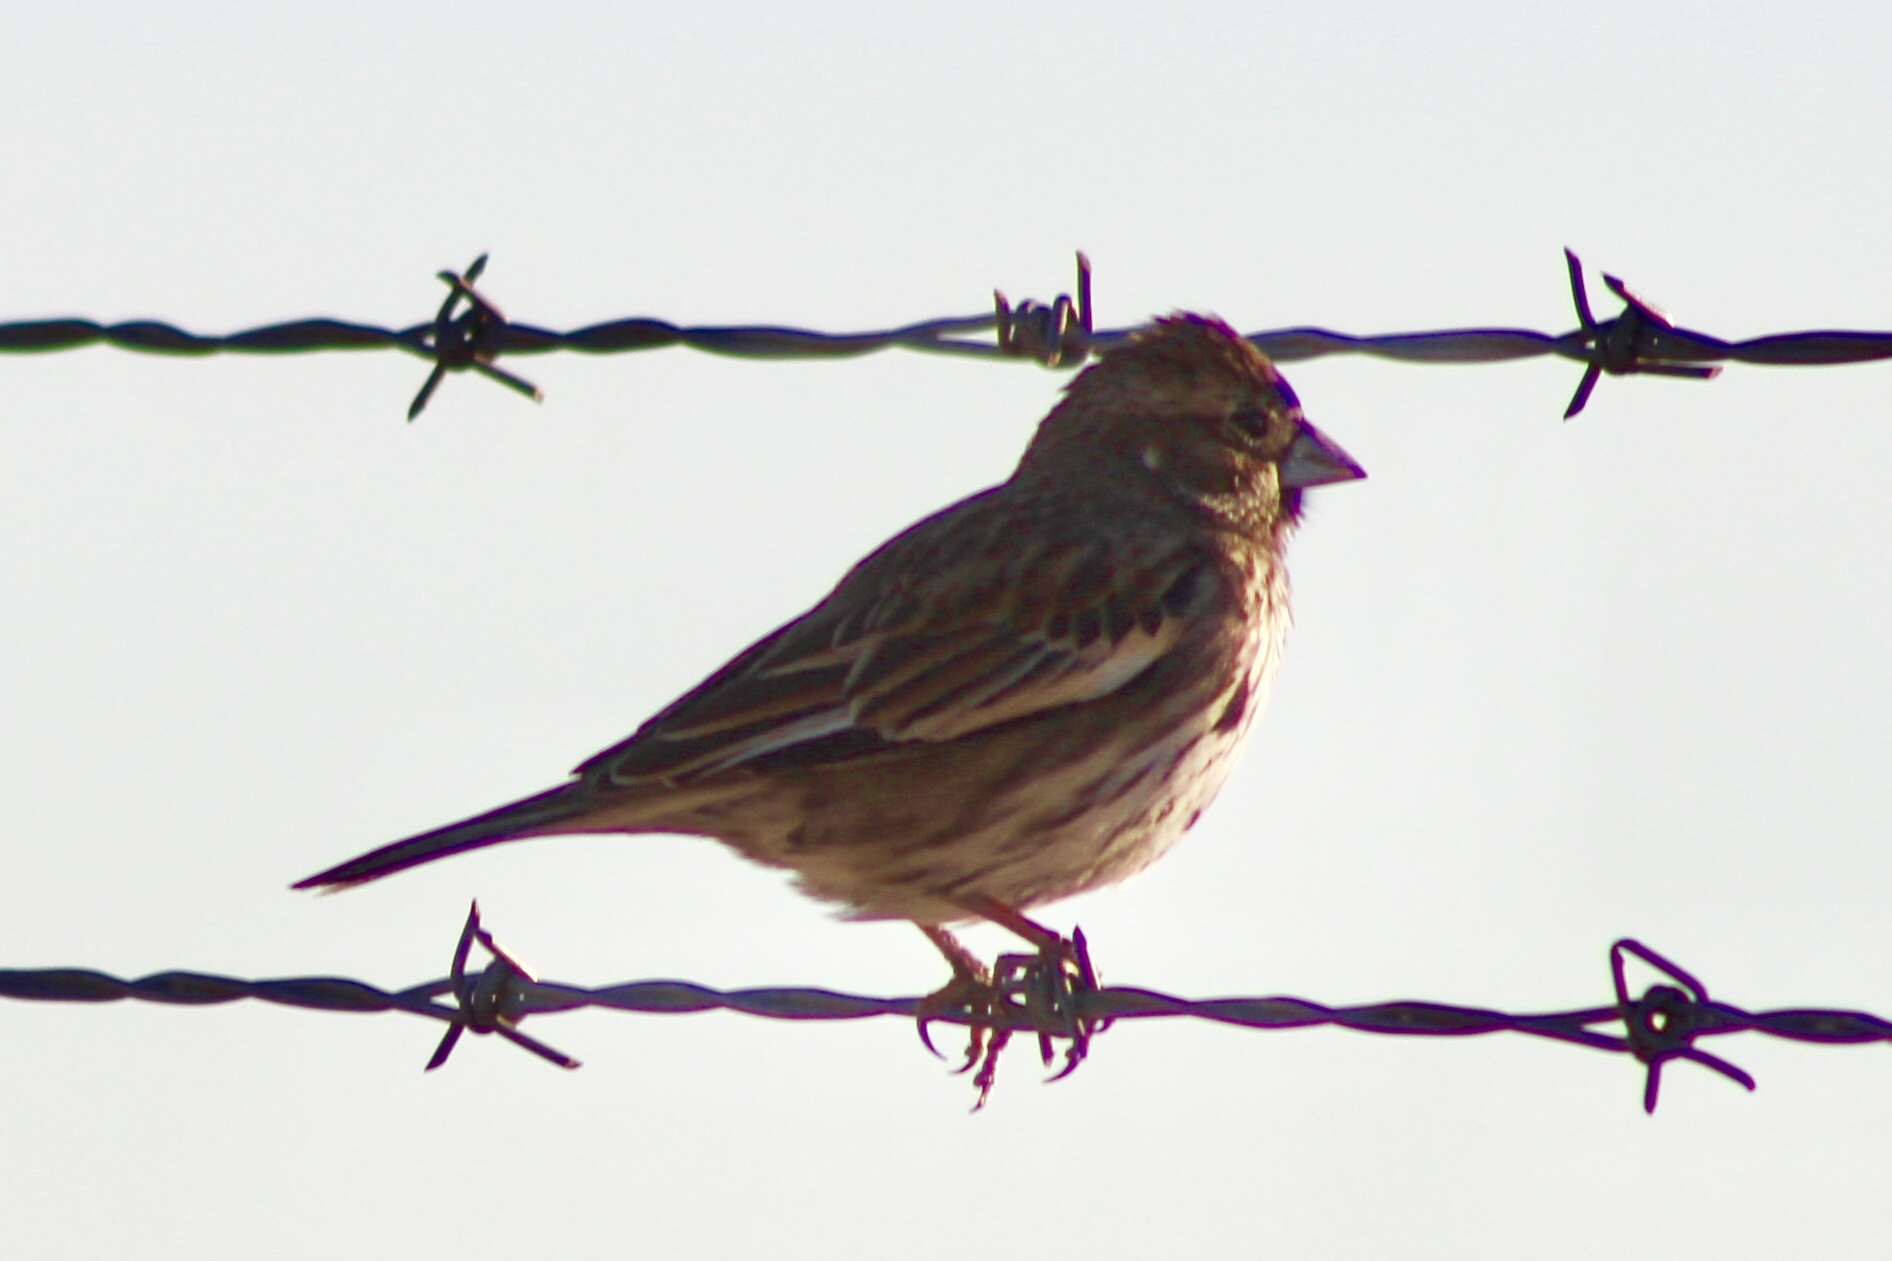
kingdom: Animalia
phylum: Chordata
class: Aves
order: Passeriformes
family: Passerellidae
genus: Calamospiza
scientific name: Calamospiza melanocorys
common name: Lark bunting
